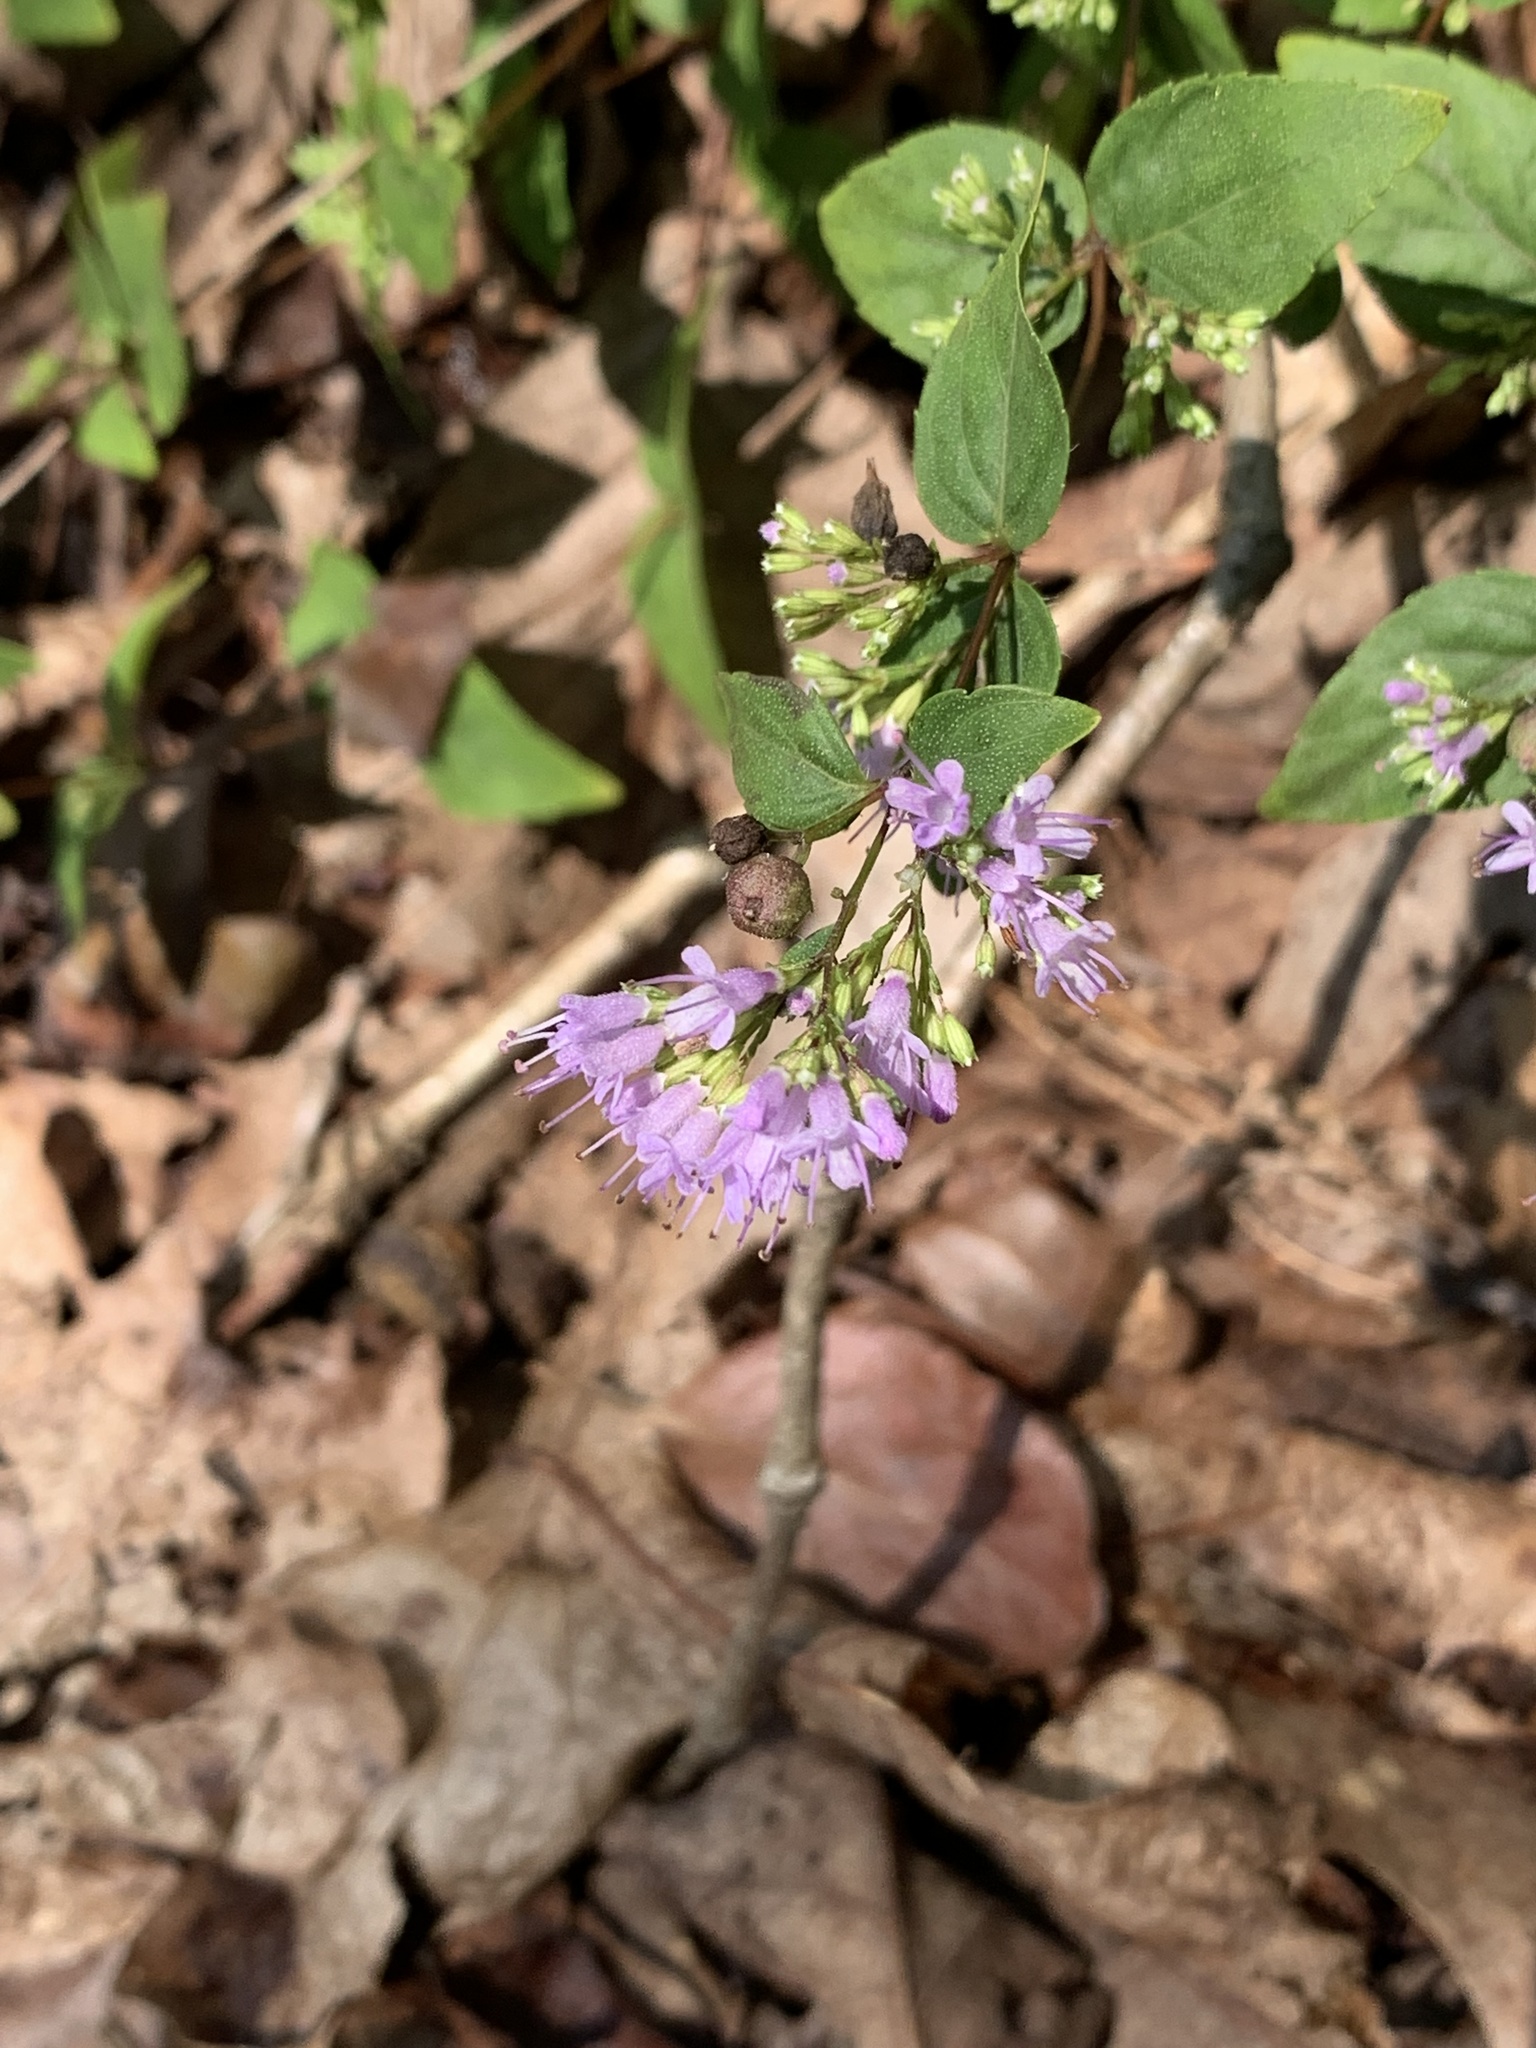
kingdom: Plantae
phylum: Tracheophyta
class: Magnoliopsida
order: Lamiales
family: Lamiaceae
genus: Cunila
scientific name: Cunila origanoides
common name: American dittany
